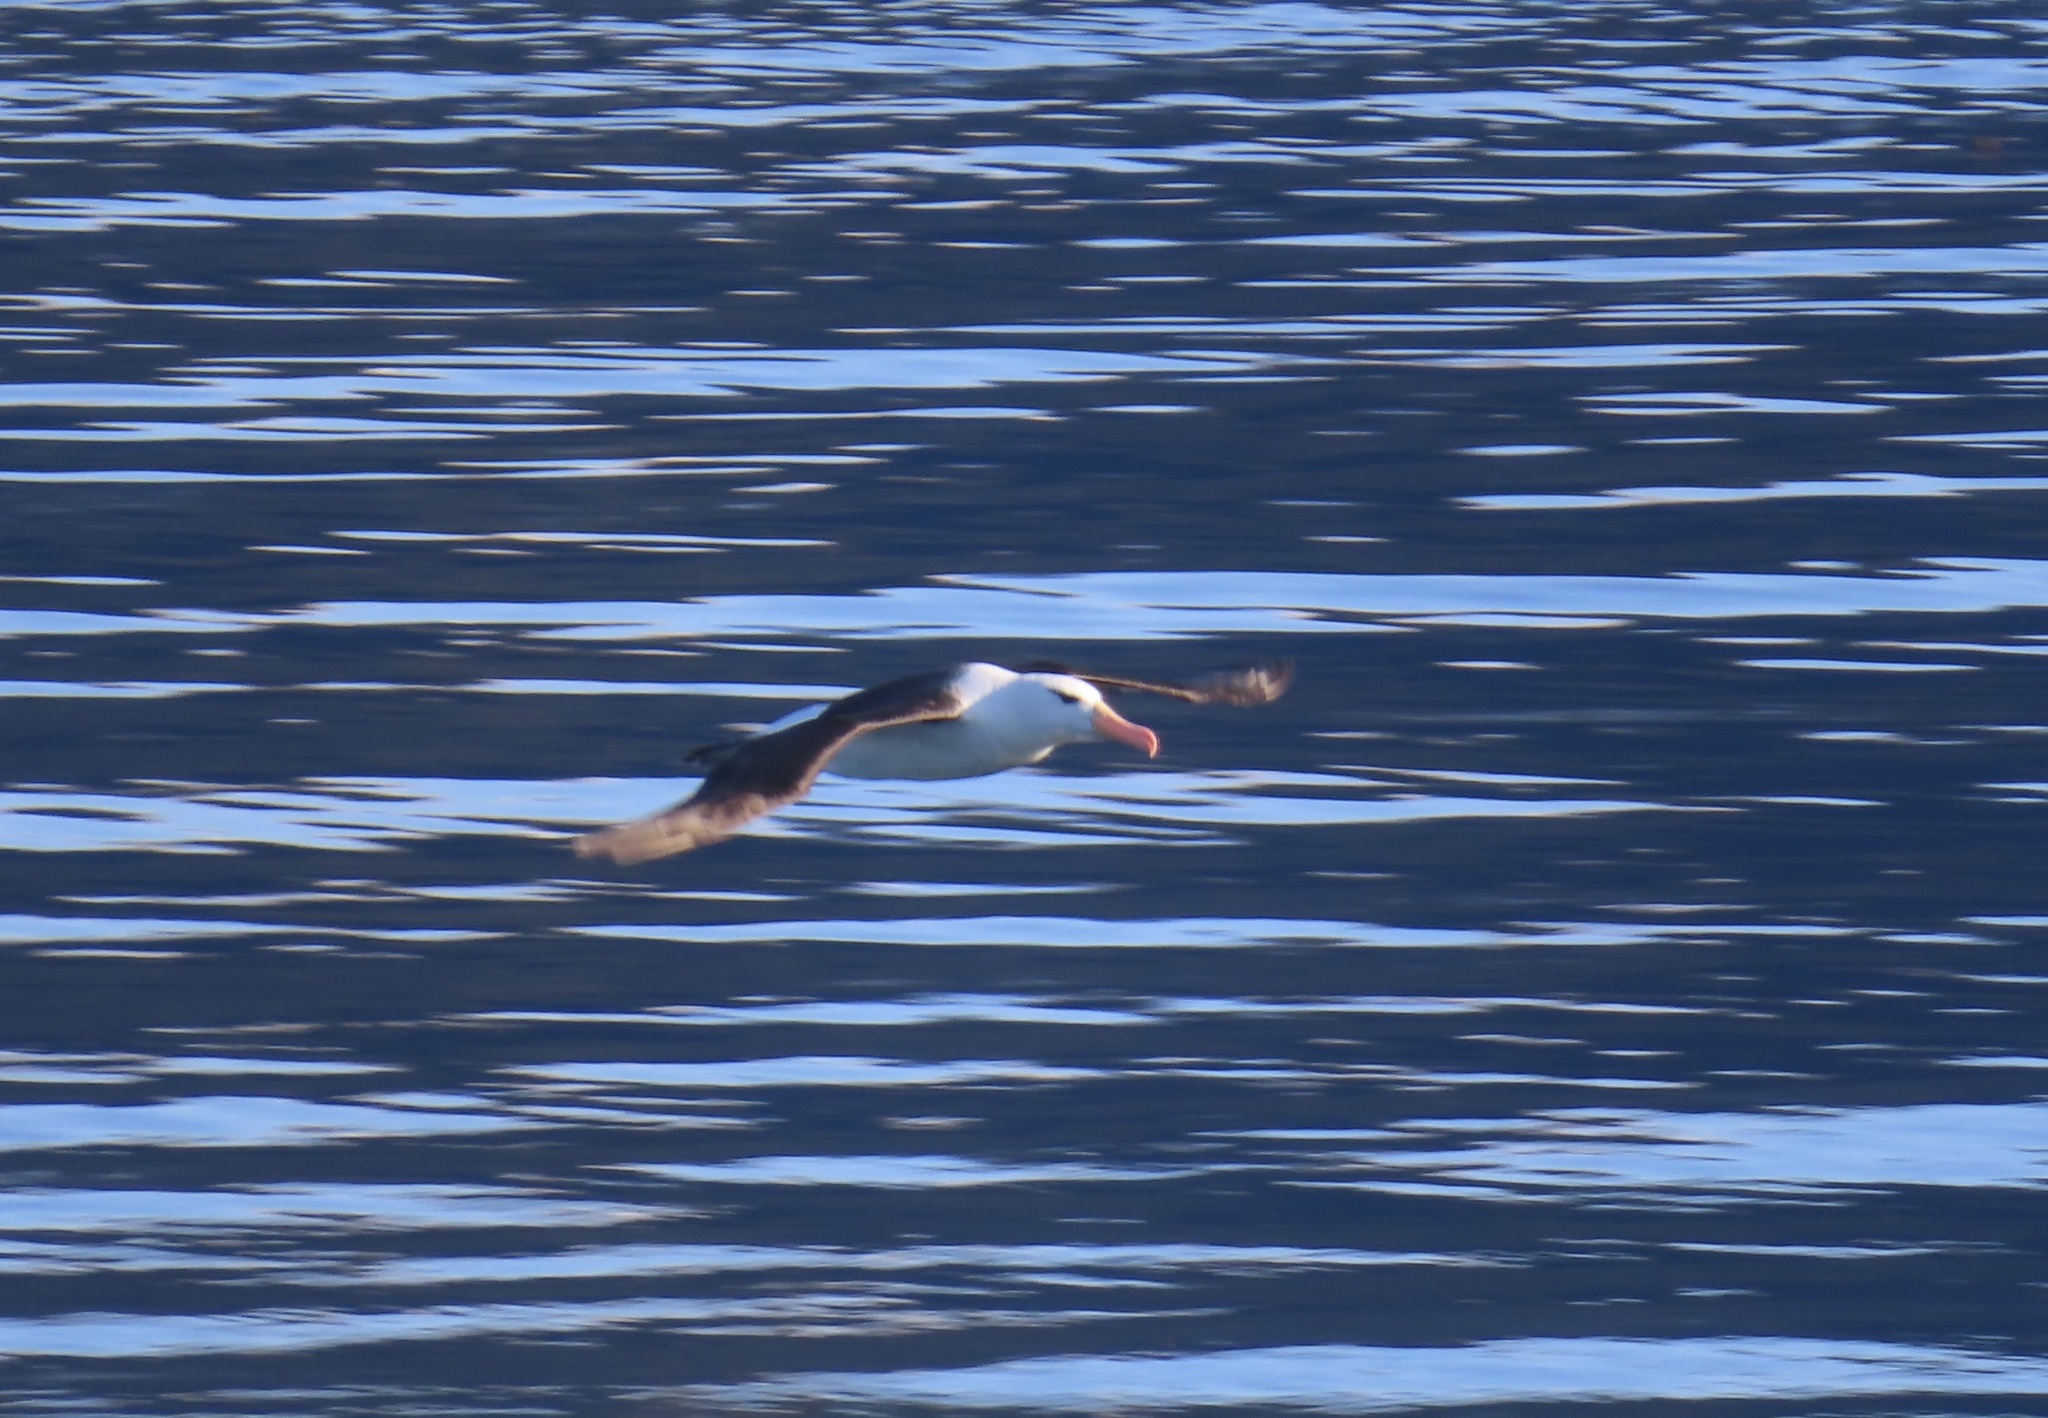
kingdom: Animalia
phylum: Chordata
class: Aves
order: Procellariiformes
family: Diomedeidae
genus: Thalassarche
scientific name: Thalassarche melanophris
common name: Black-browed albatross
